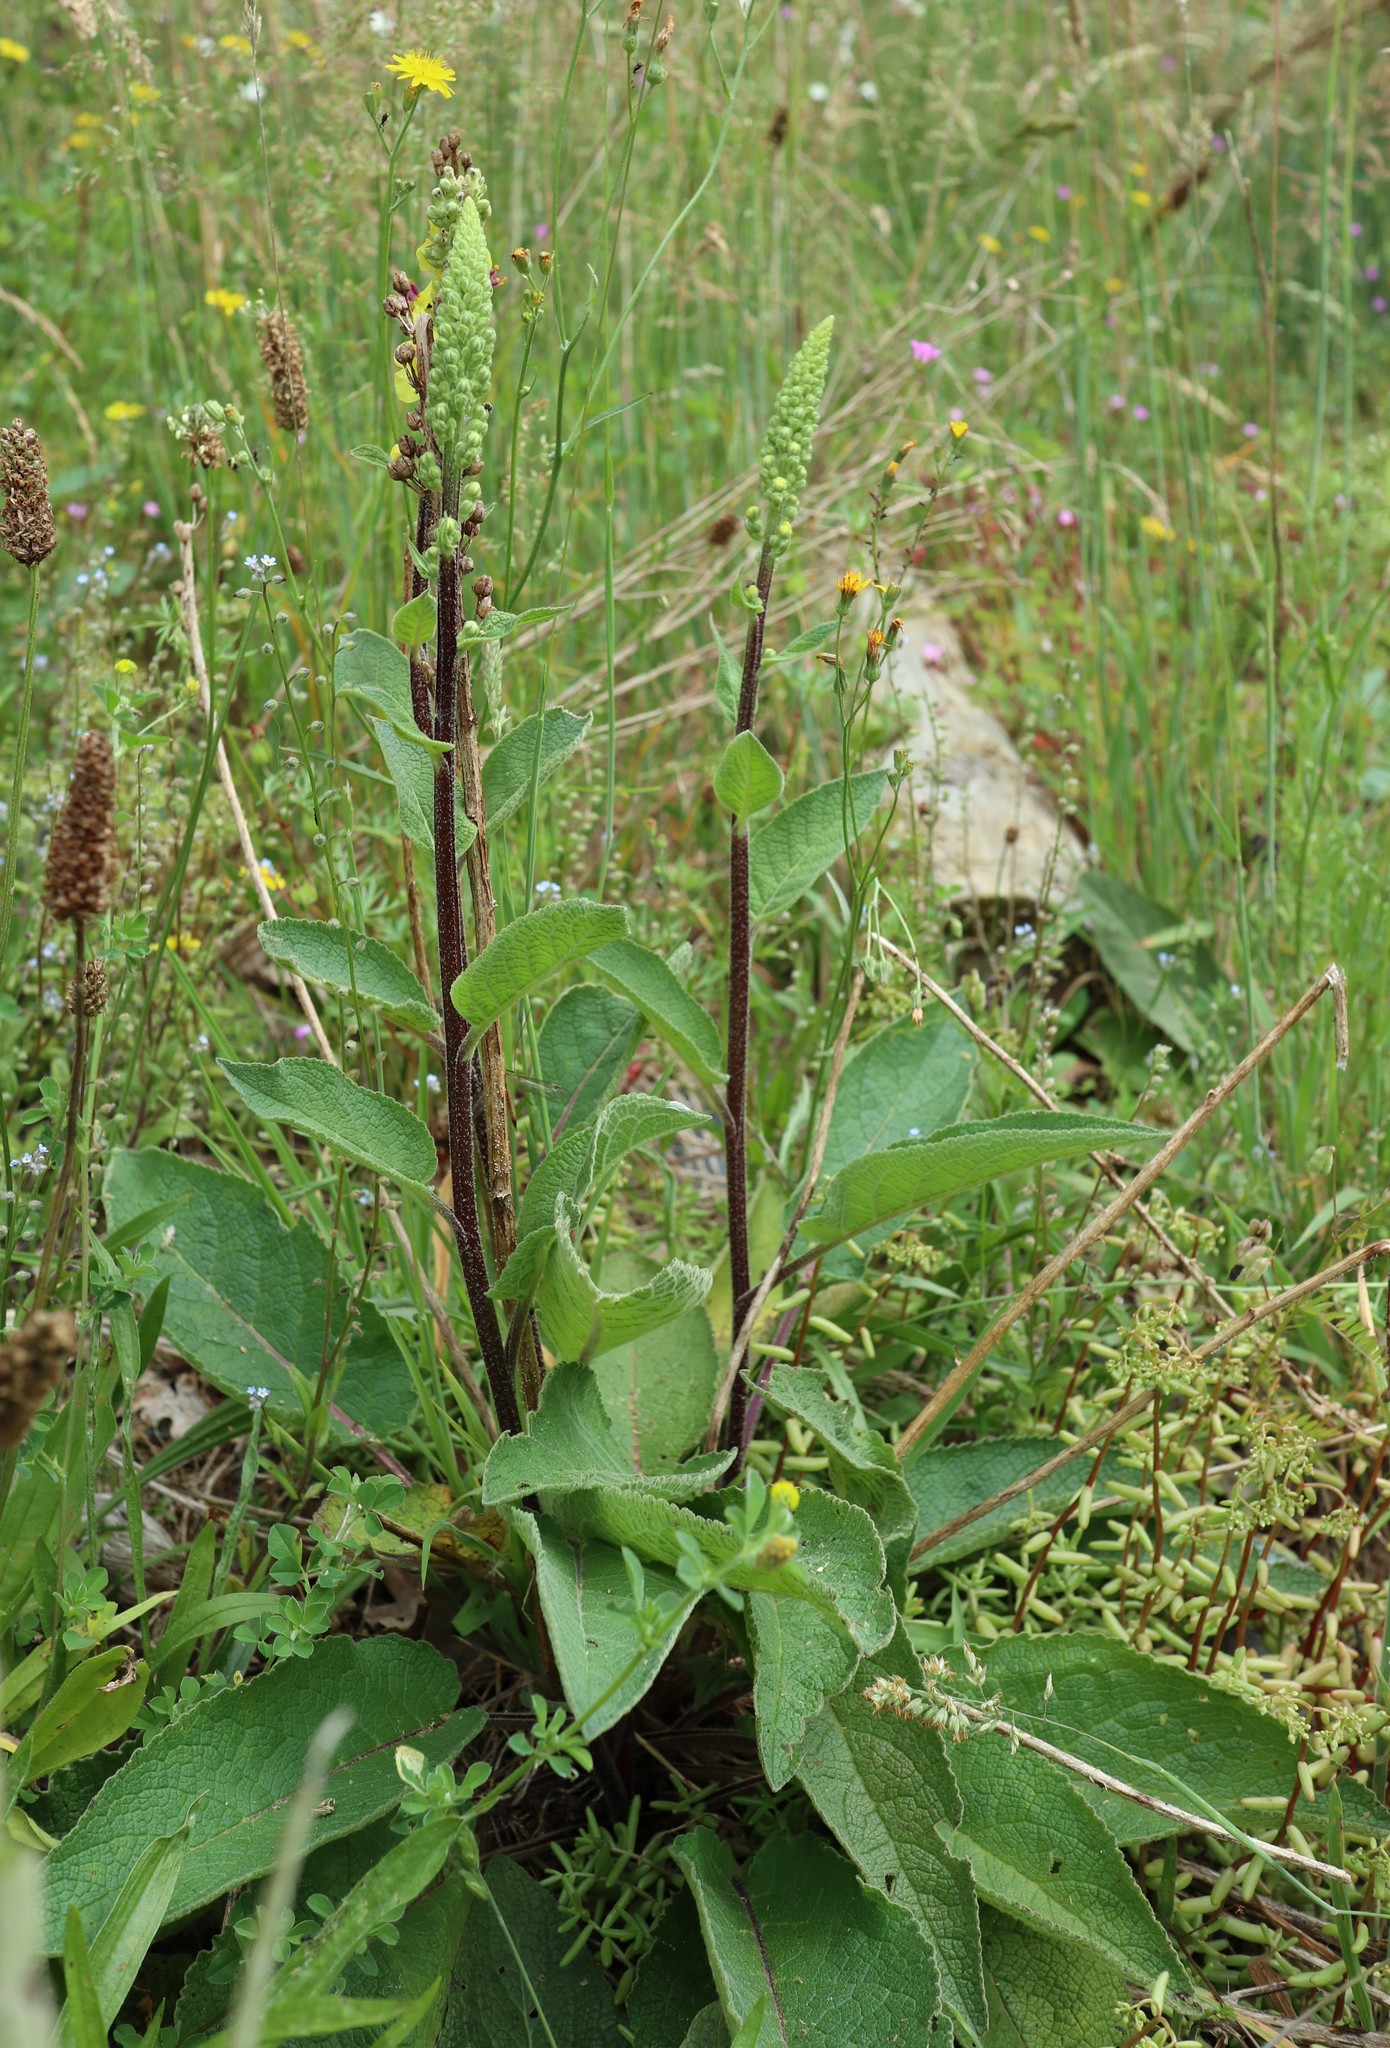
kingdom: Plantae
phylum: Tracheophyta
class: Magnoliopsida
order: Lamiales
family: Scrophulariaceae
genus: Verbascum
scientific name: Verbascum nigrum
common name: Dark mullein
